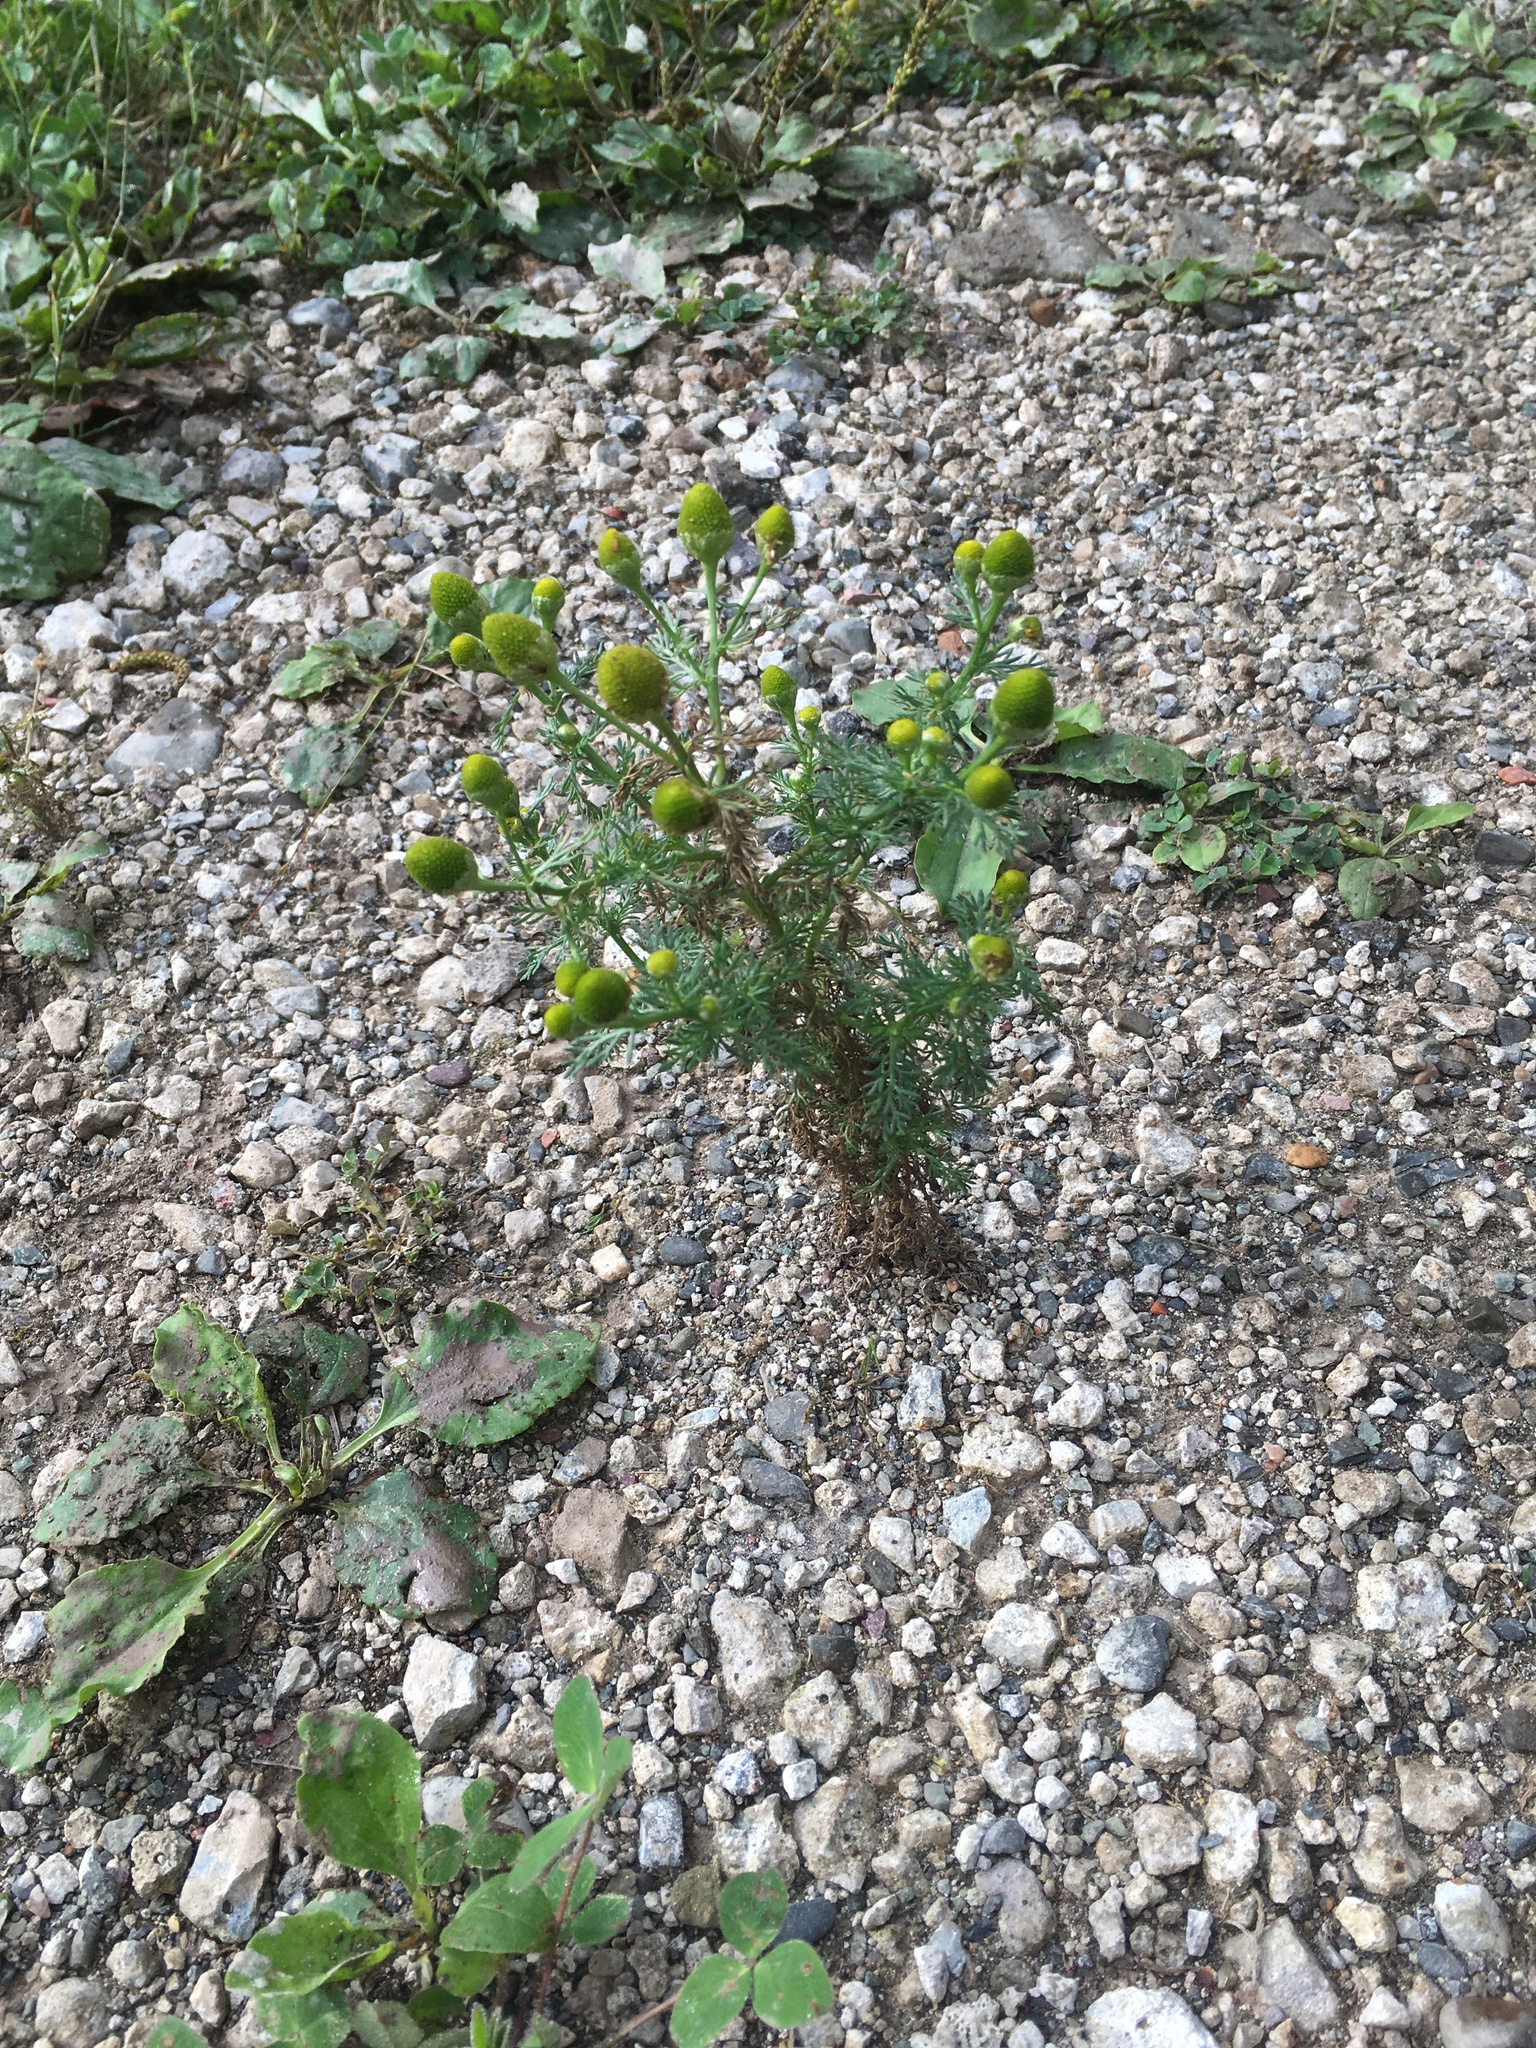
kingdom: Plantae
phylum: Tracheophyta
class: Magnoliopsida
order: Asterales
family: Asteraceae
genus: Matricaria
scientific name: Matricaria discoidea
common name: Disc mayweed
